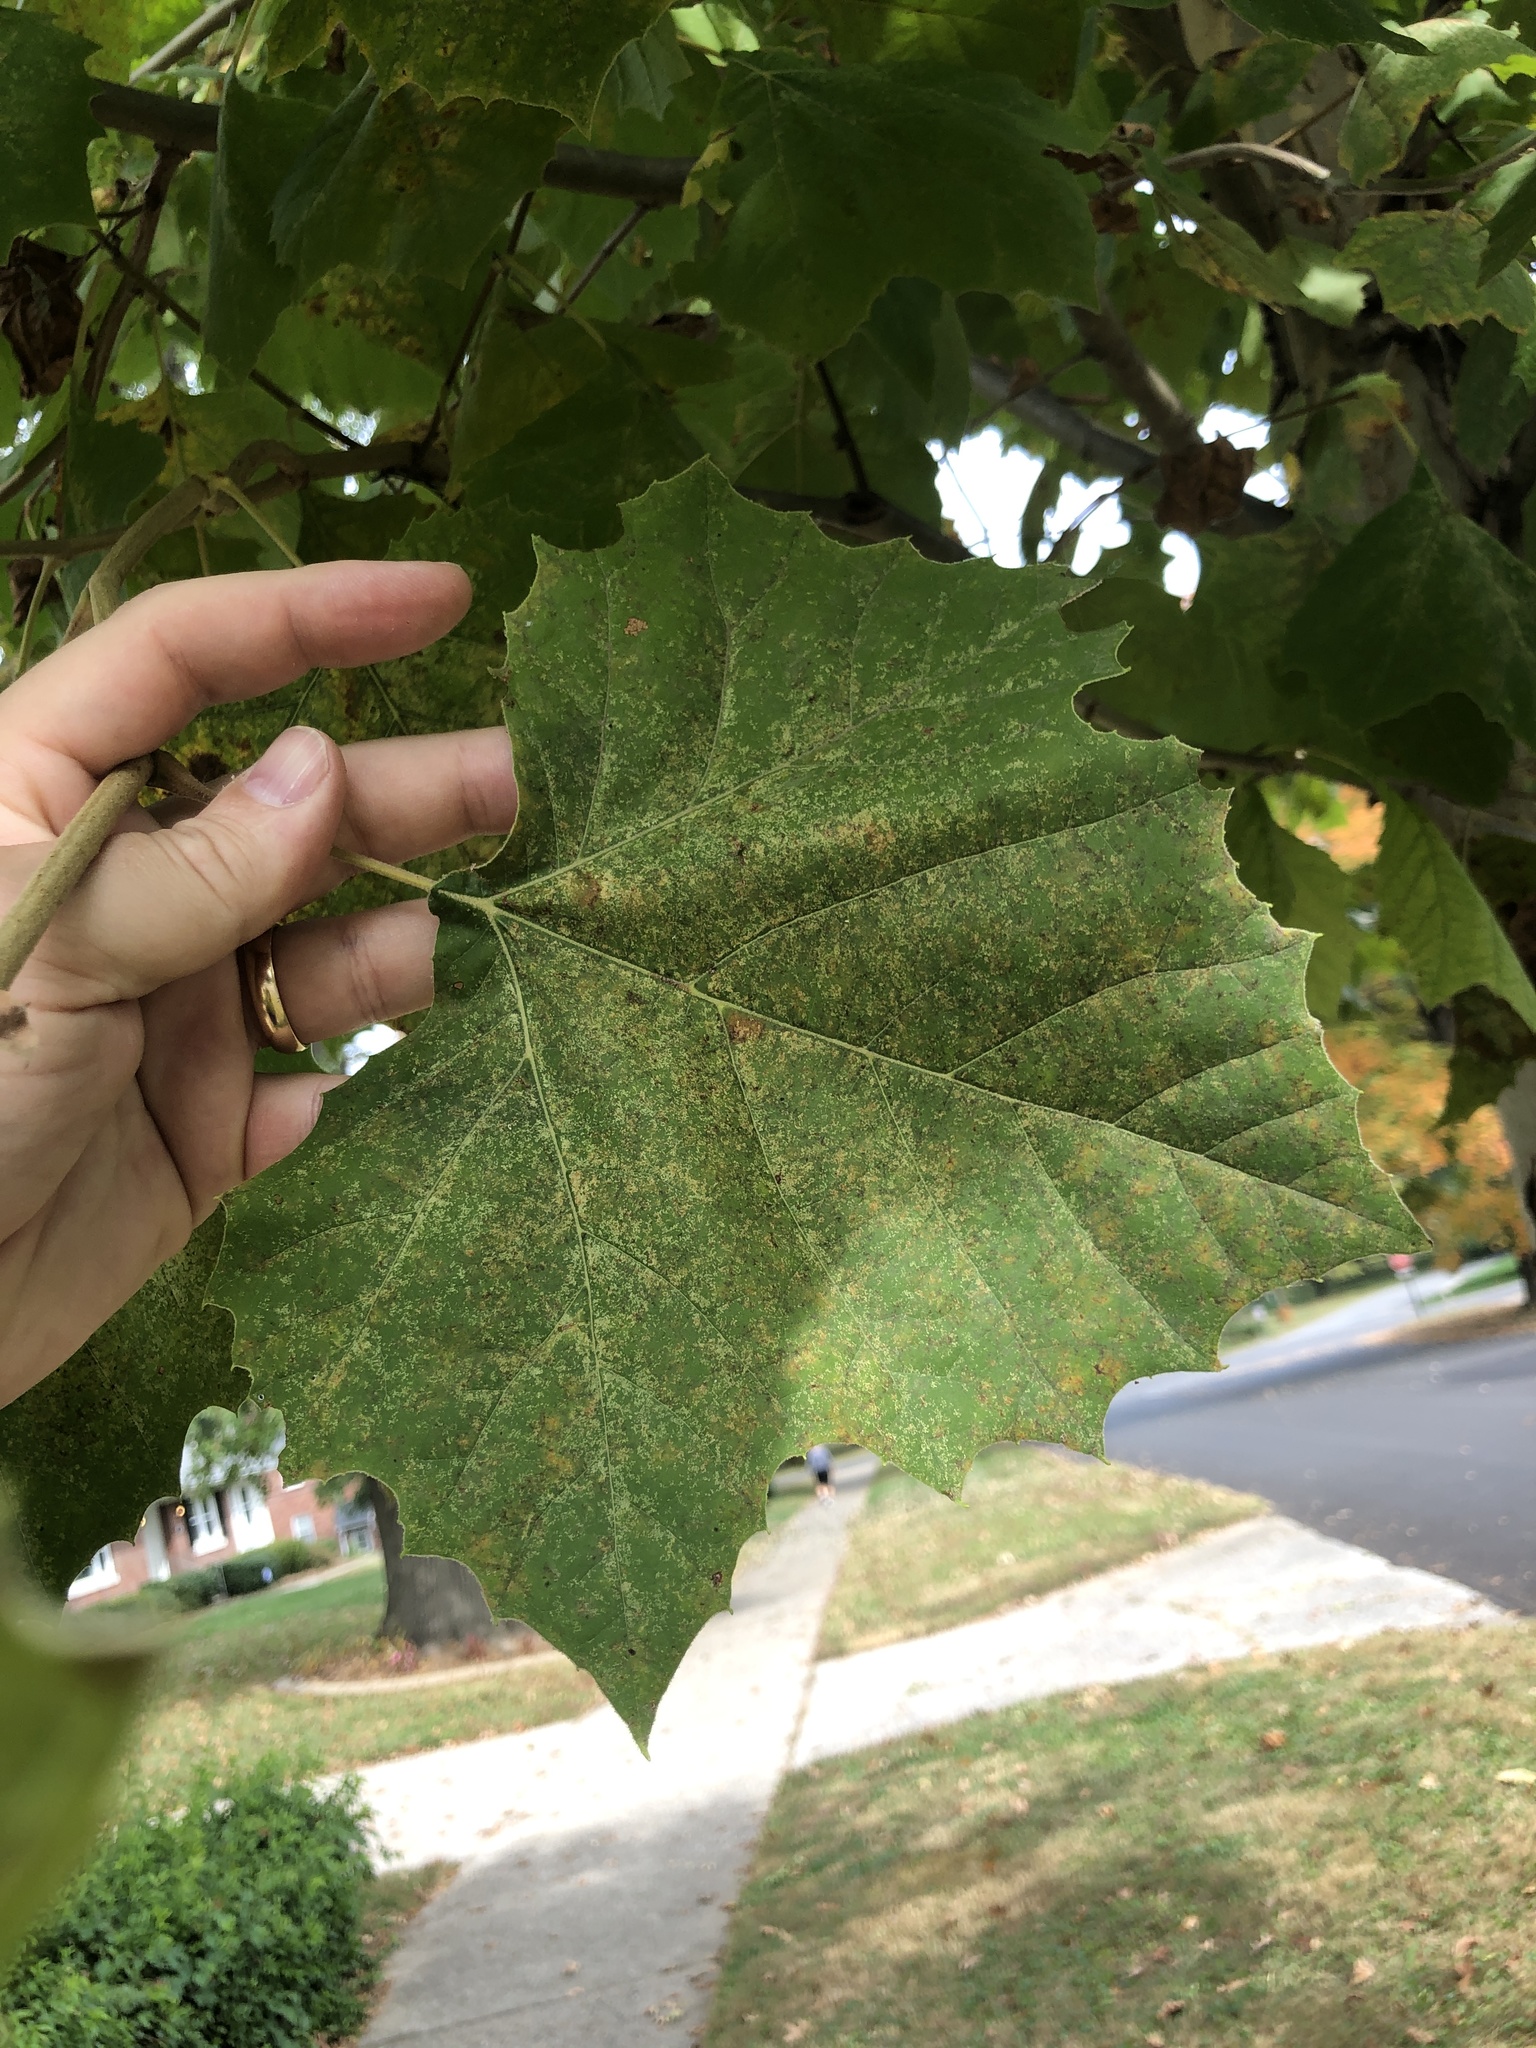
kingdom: Plantae
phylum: Tracheophyta
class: Magnoliopsida
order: Proteales
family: Platanaceae
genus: Platanus
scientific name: Platanus occidentalis
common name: American sycamore
